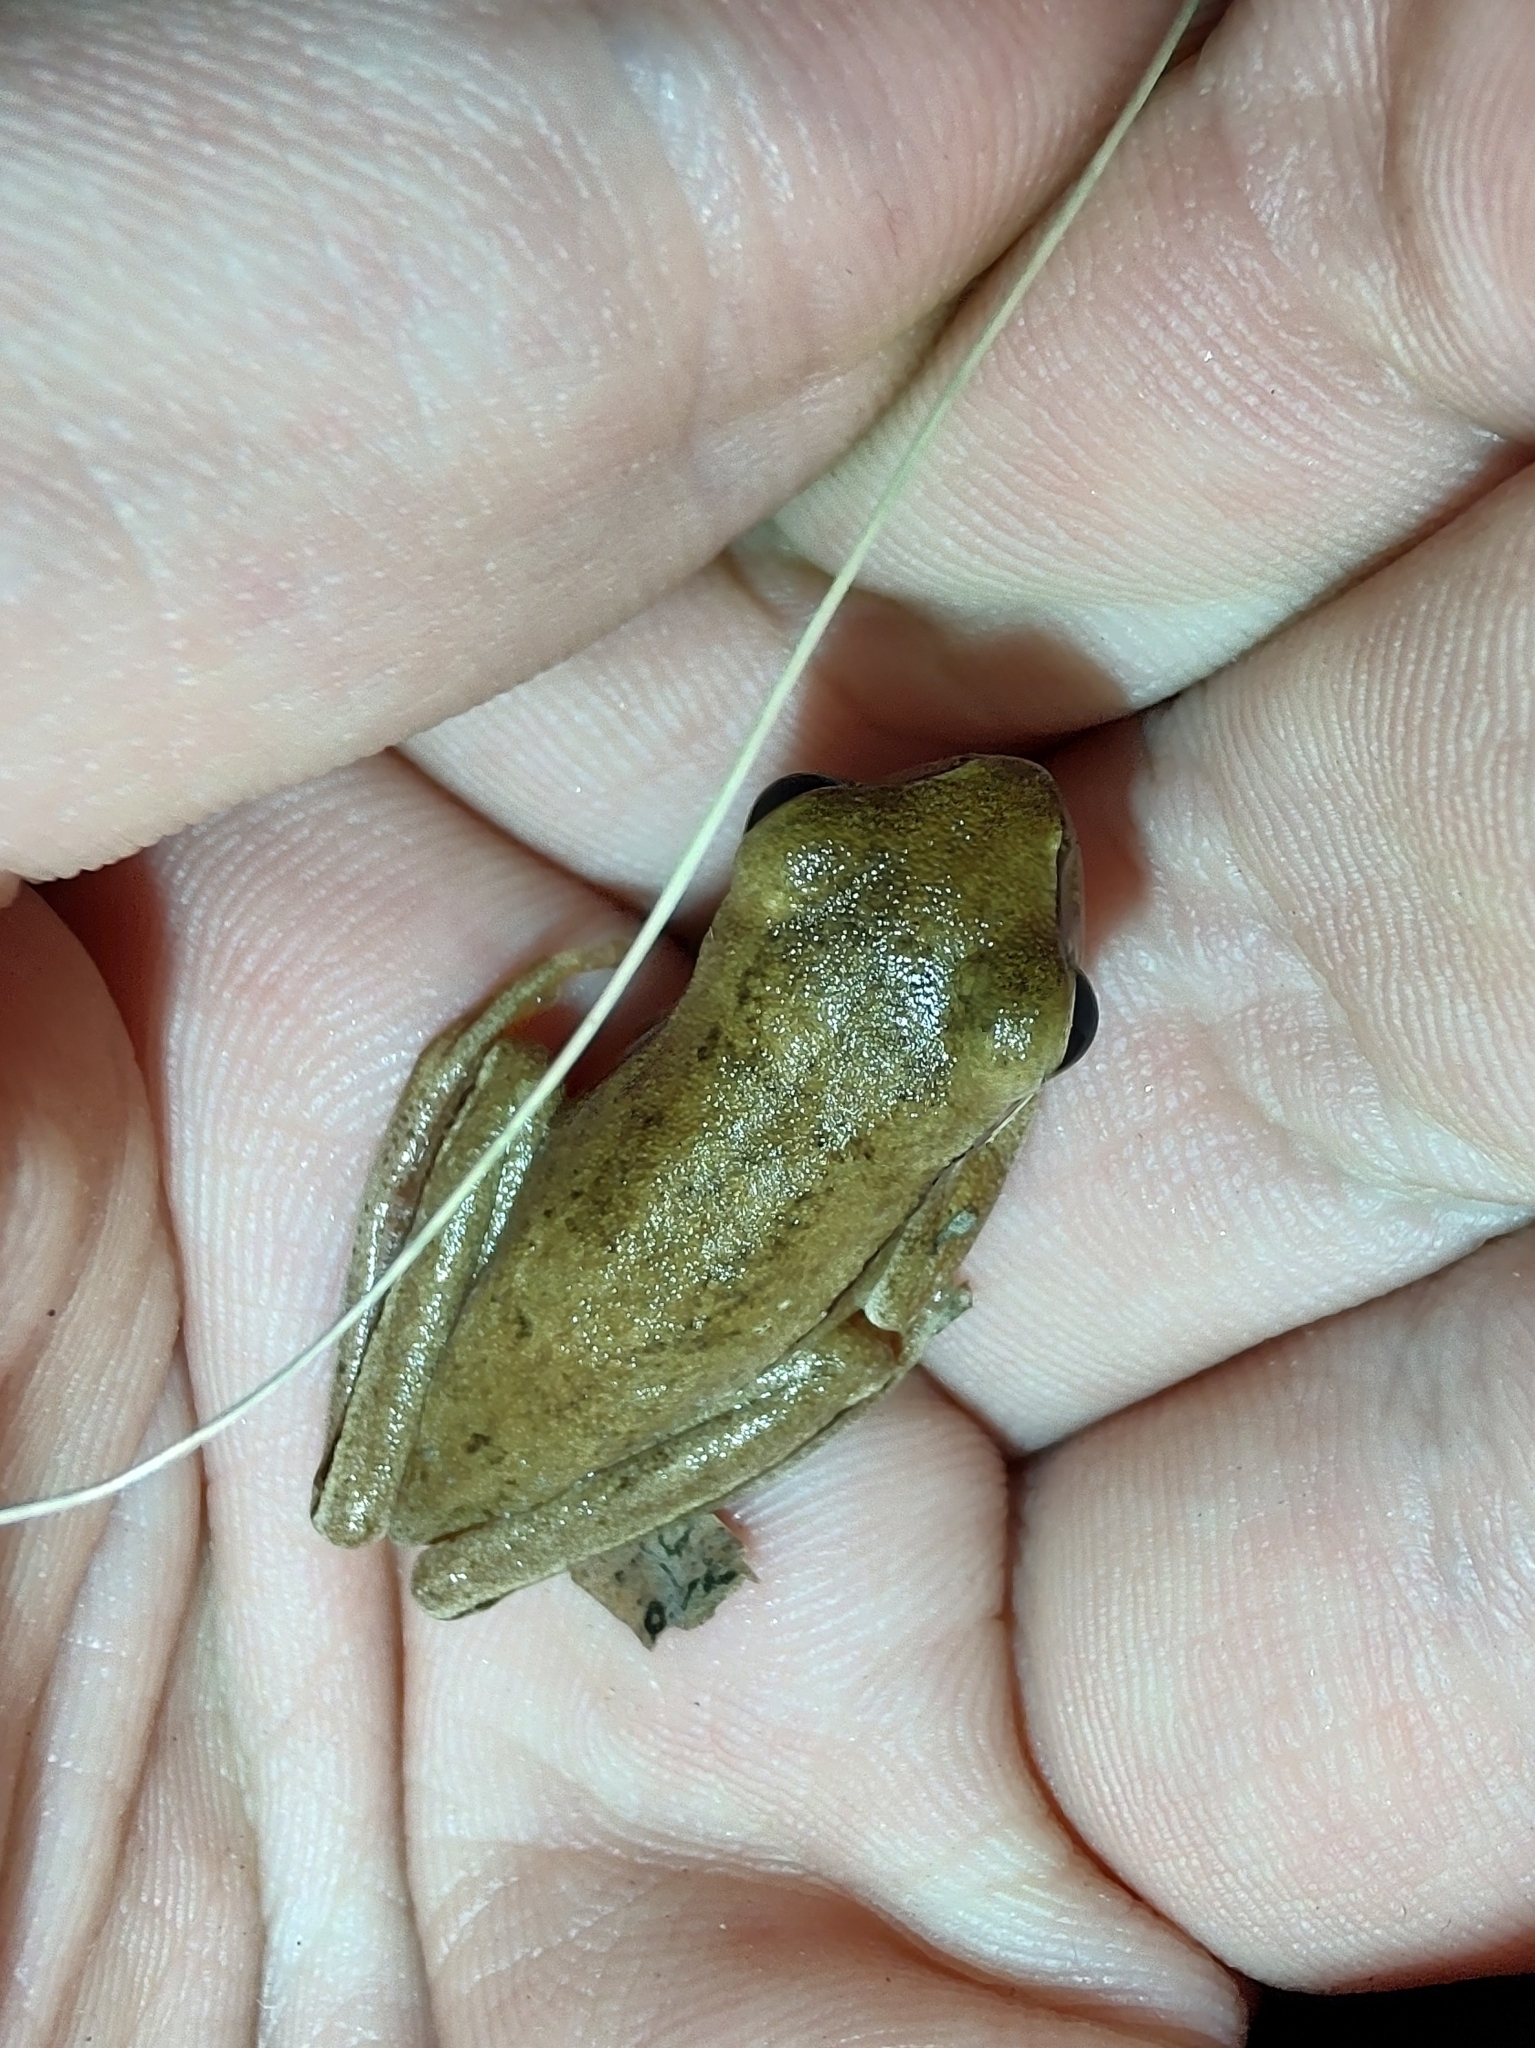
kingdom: Animalia
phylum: Chordata
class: Amphibia
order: Anura
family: Hylidae
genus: Boana
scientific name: Boana pulchella
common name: Montevideo treefrog
